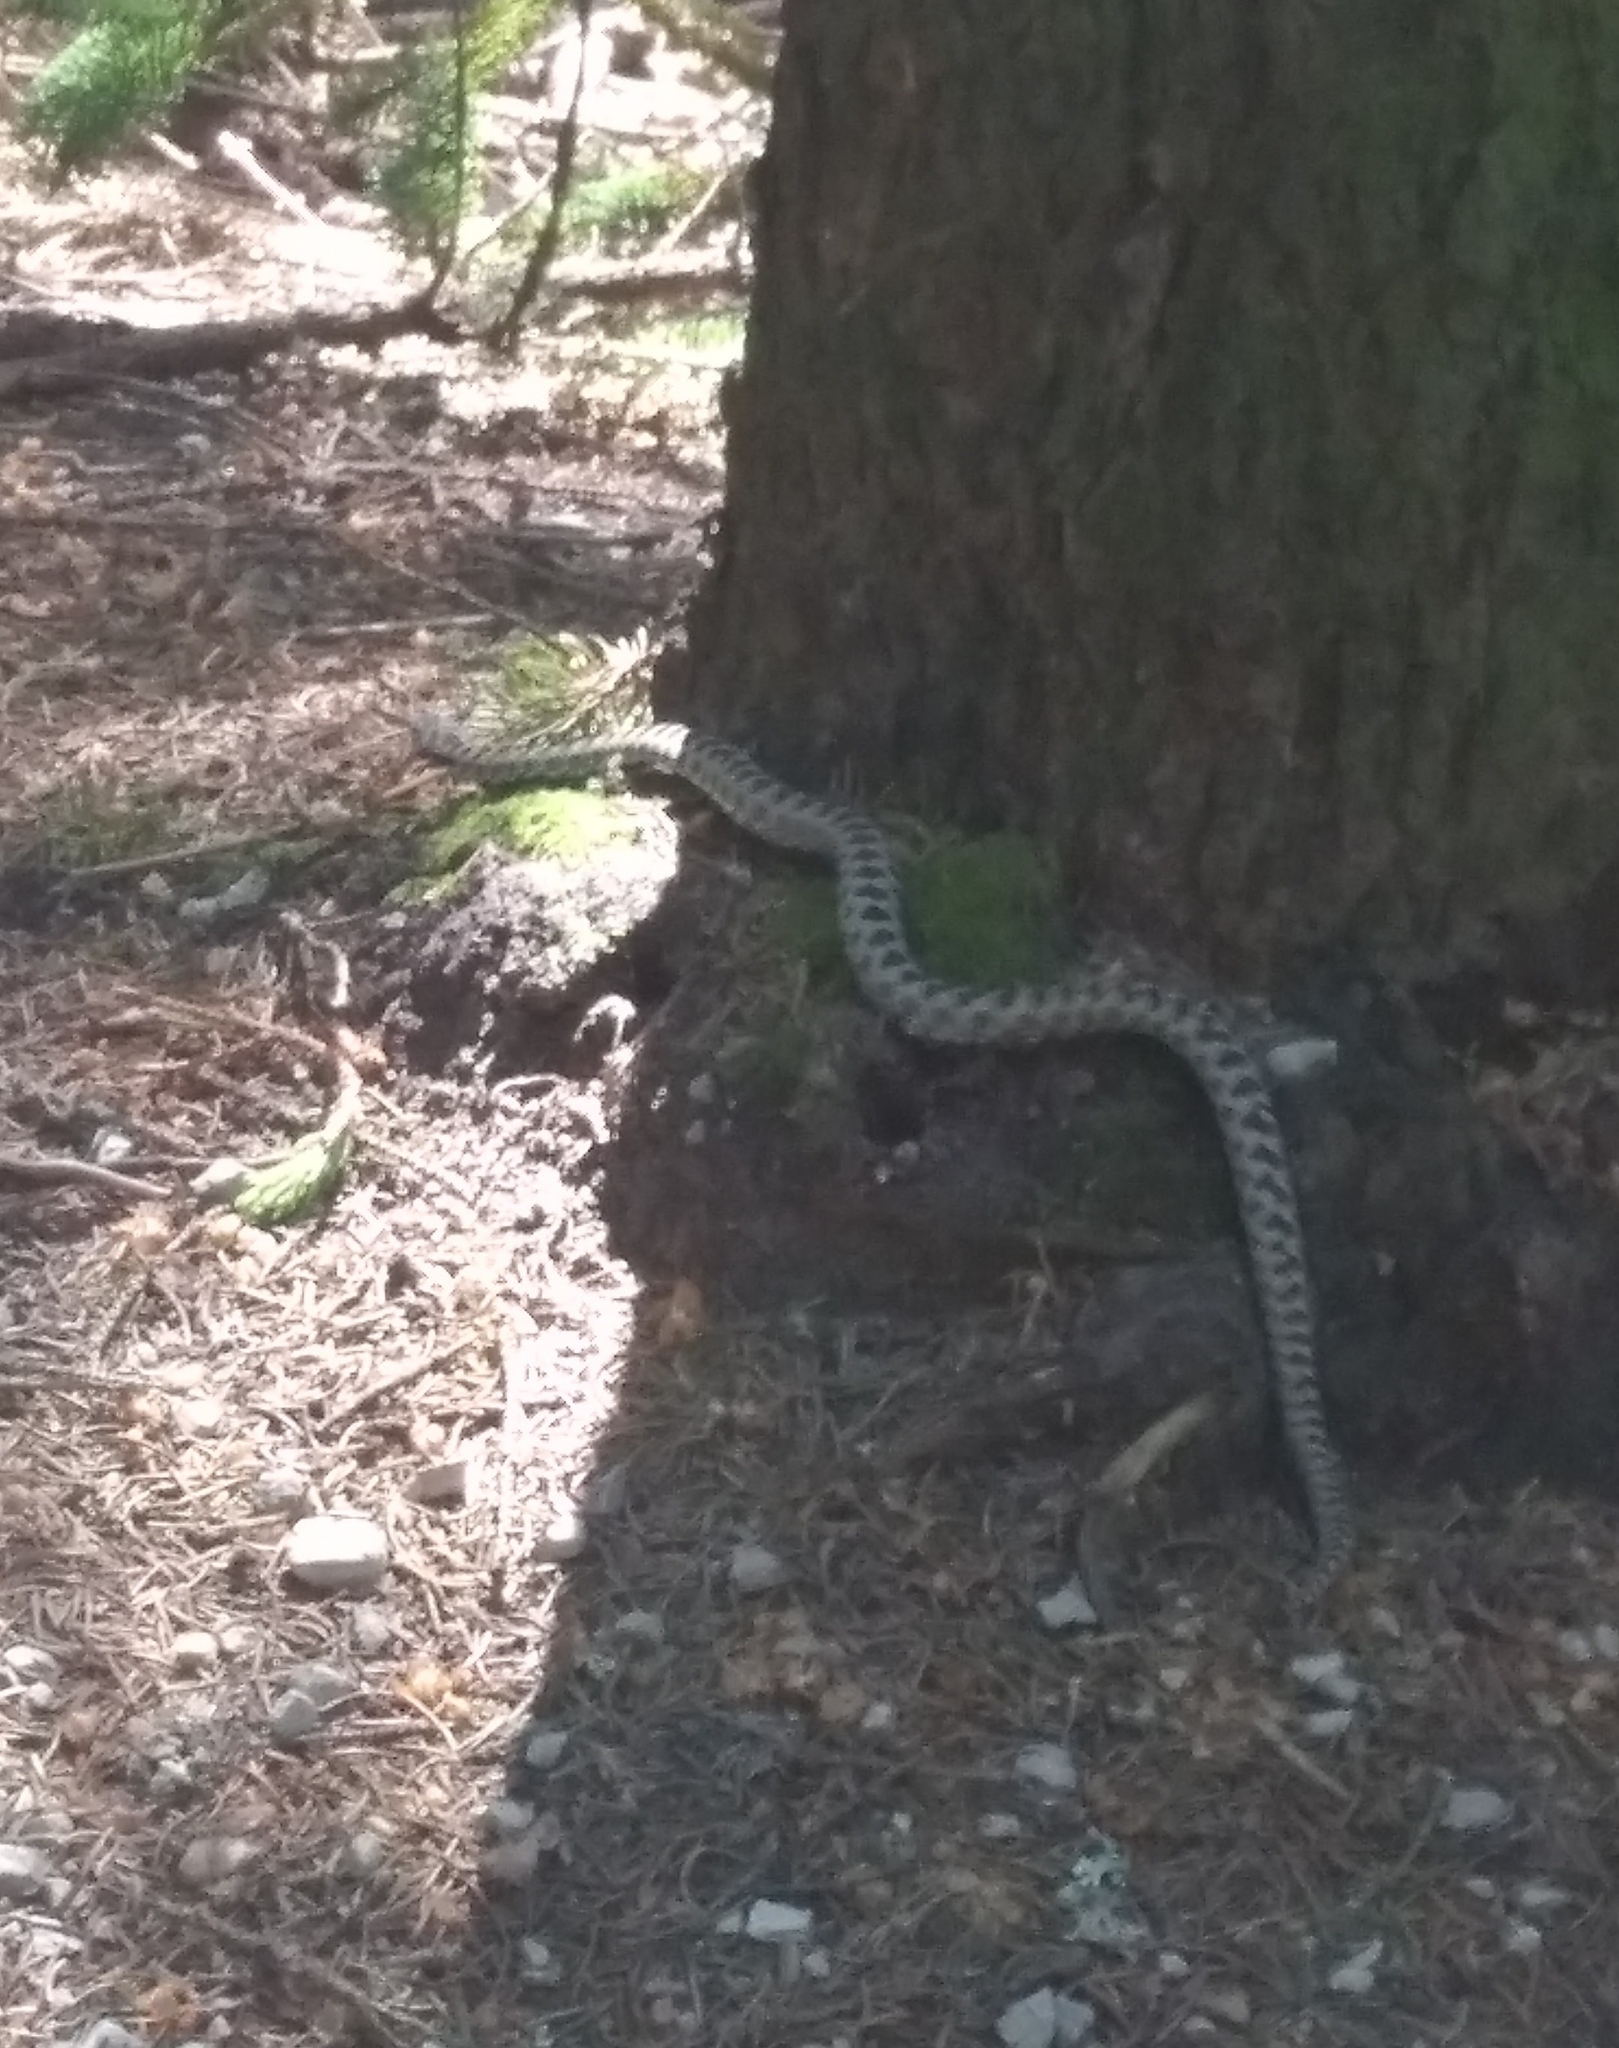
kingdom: Animalia
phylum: Chordata
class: Squamata
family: Viperidae
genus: Vipera
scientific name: Vipera berus
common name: Adder
